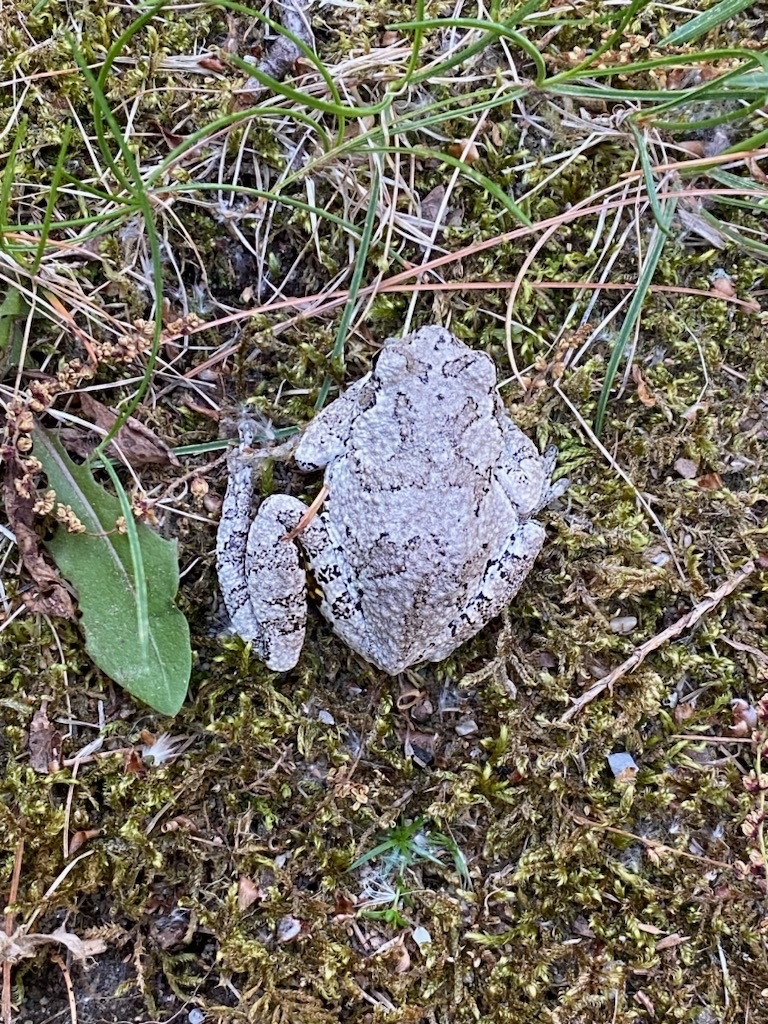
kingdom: Animalia
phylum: Chordata
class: Amphibia
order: Anura
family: Hylidae
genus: Dryophytes
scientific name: Dryophytes versicolor
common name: Gray treefrog
